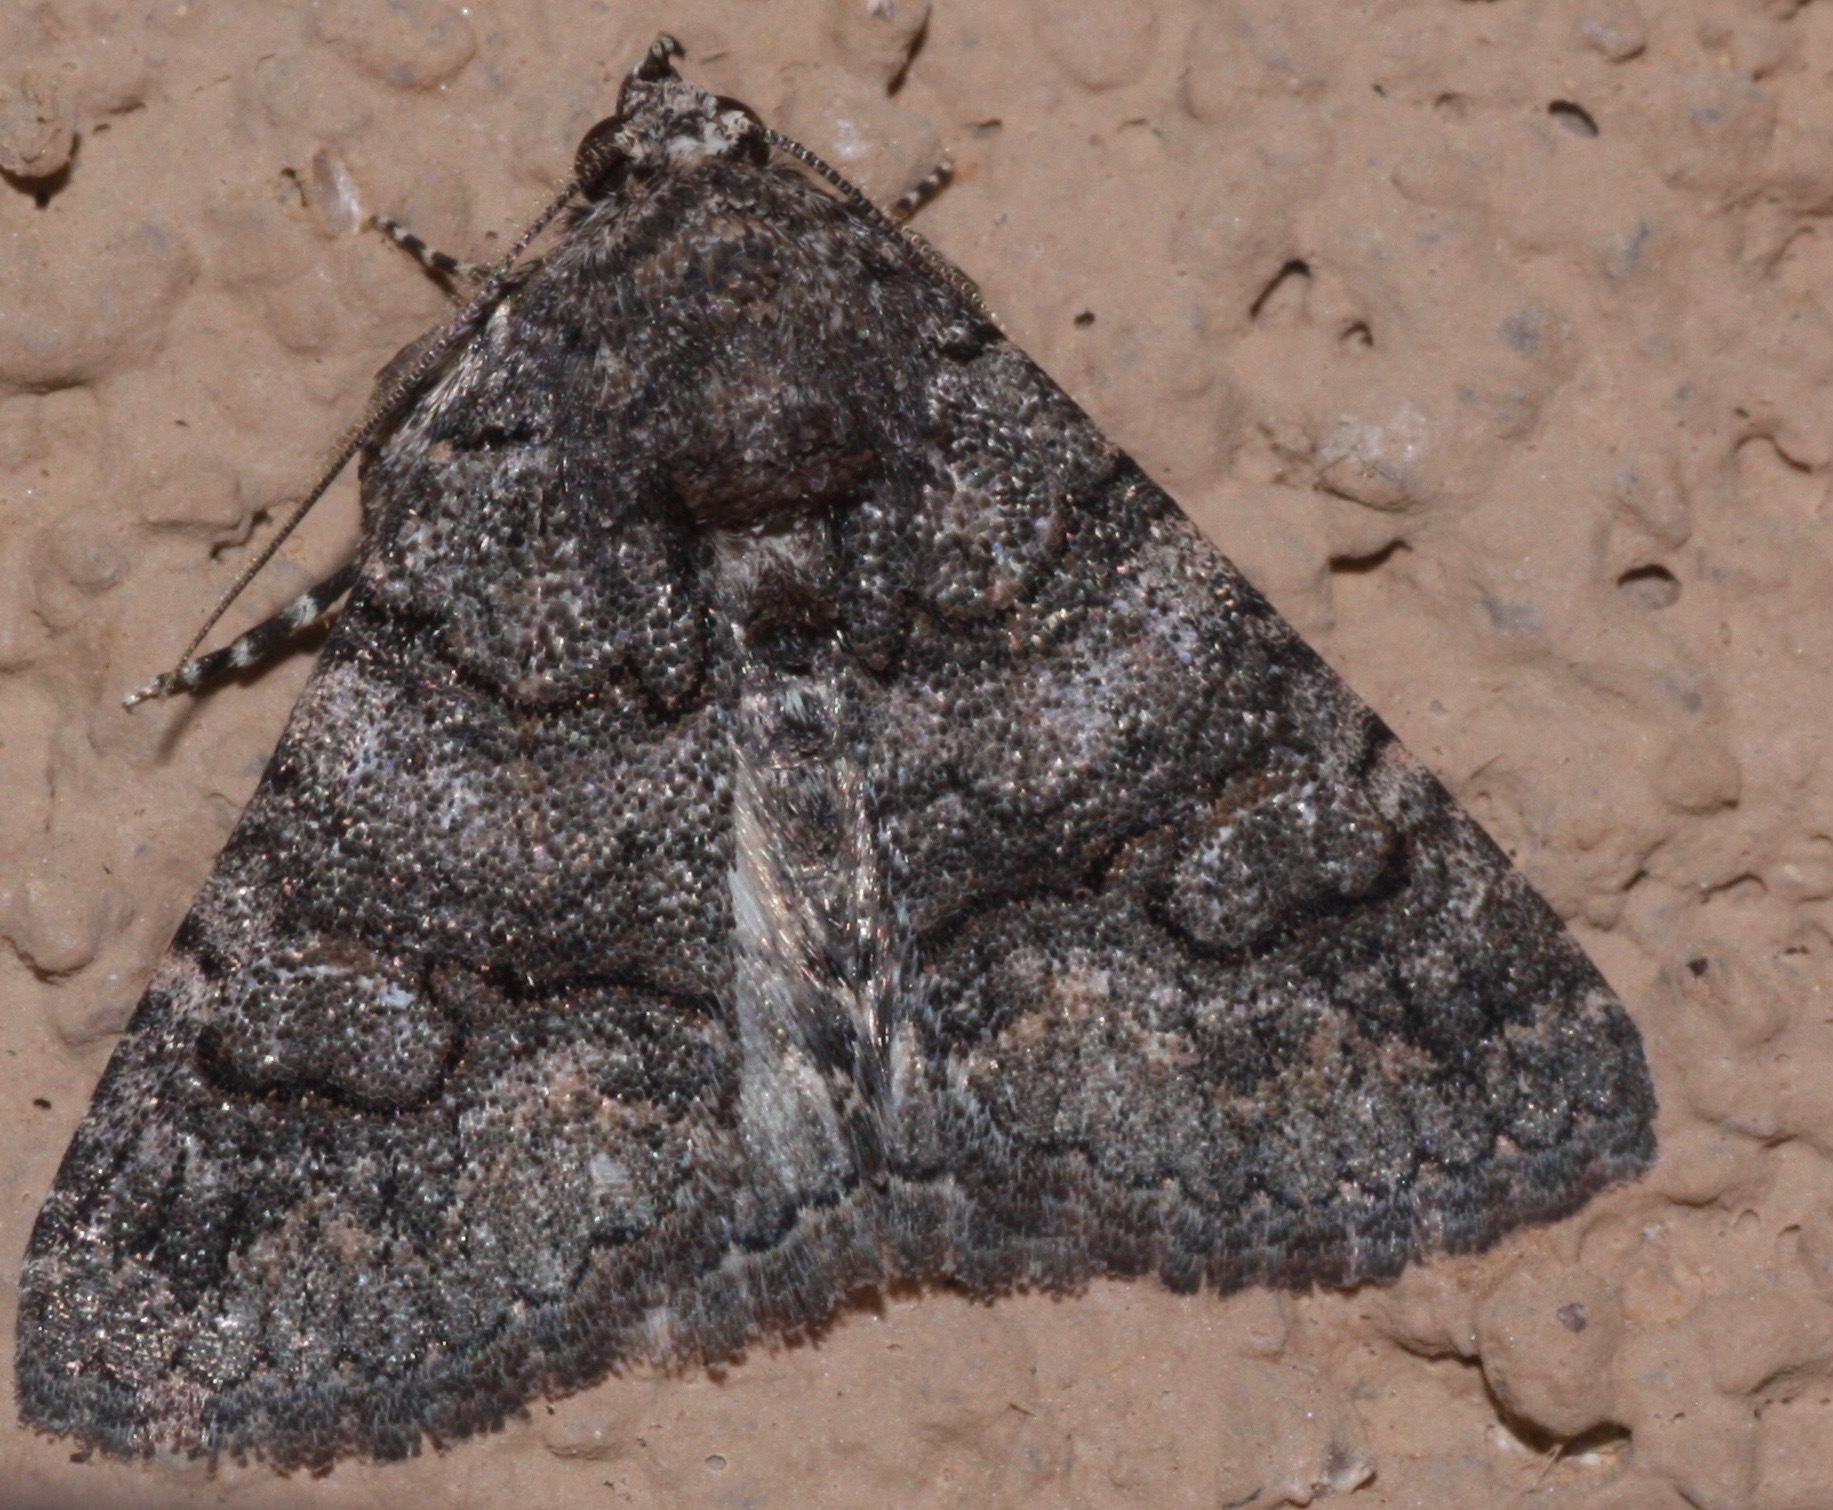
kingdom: Animalia
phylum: Arthropoda
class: Insecta
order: Lepidoptera
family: Erebidae
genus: Elousa
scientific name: Elousa mima
